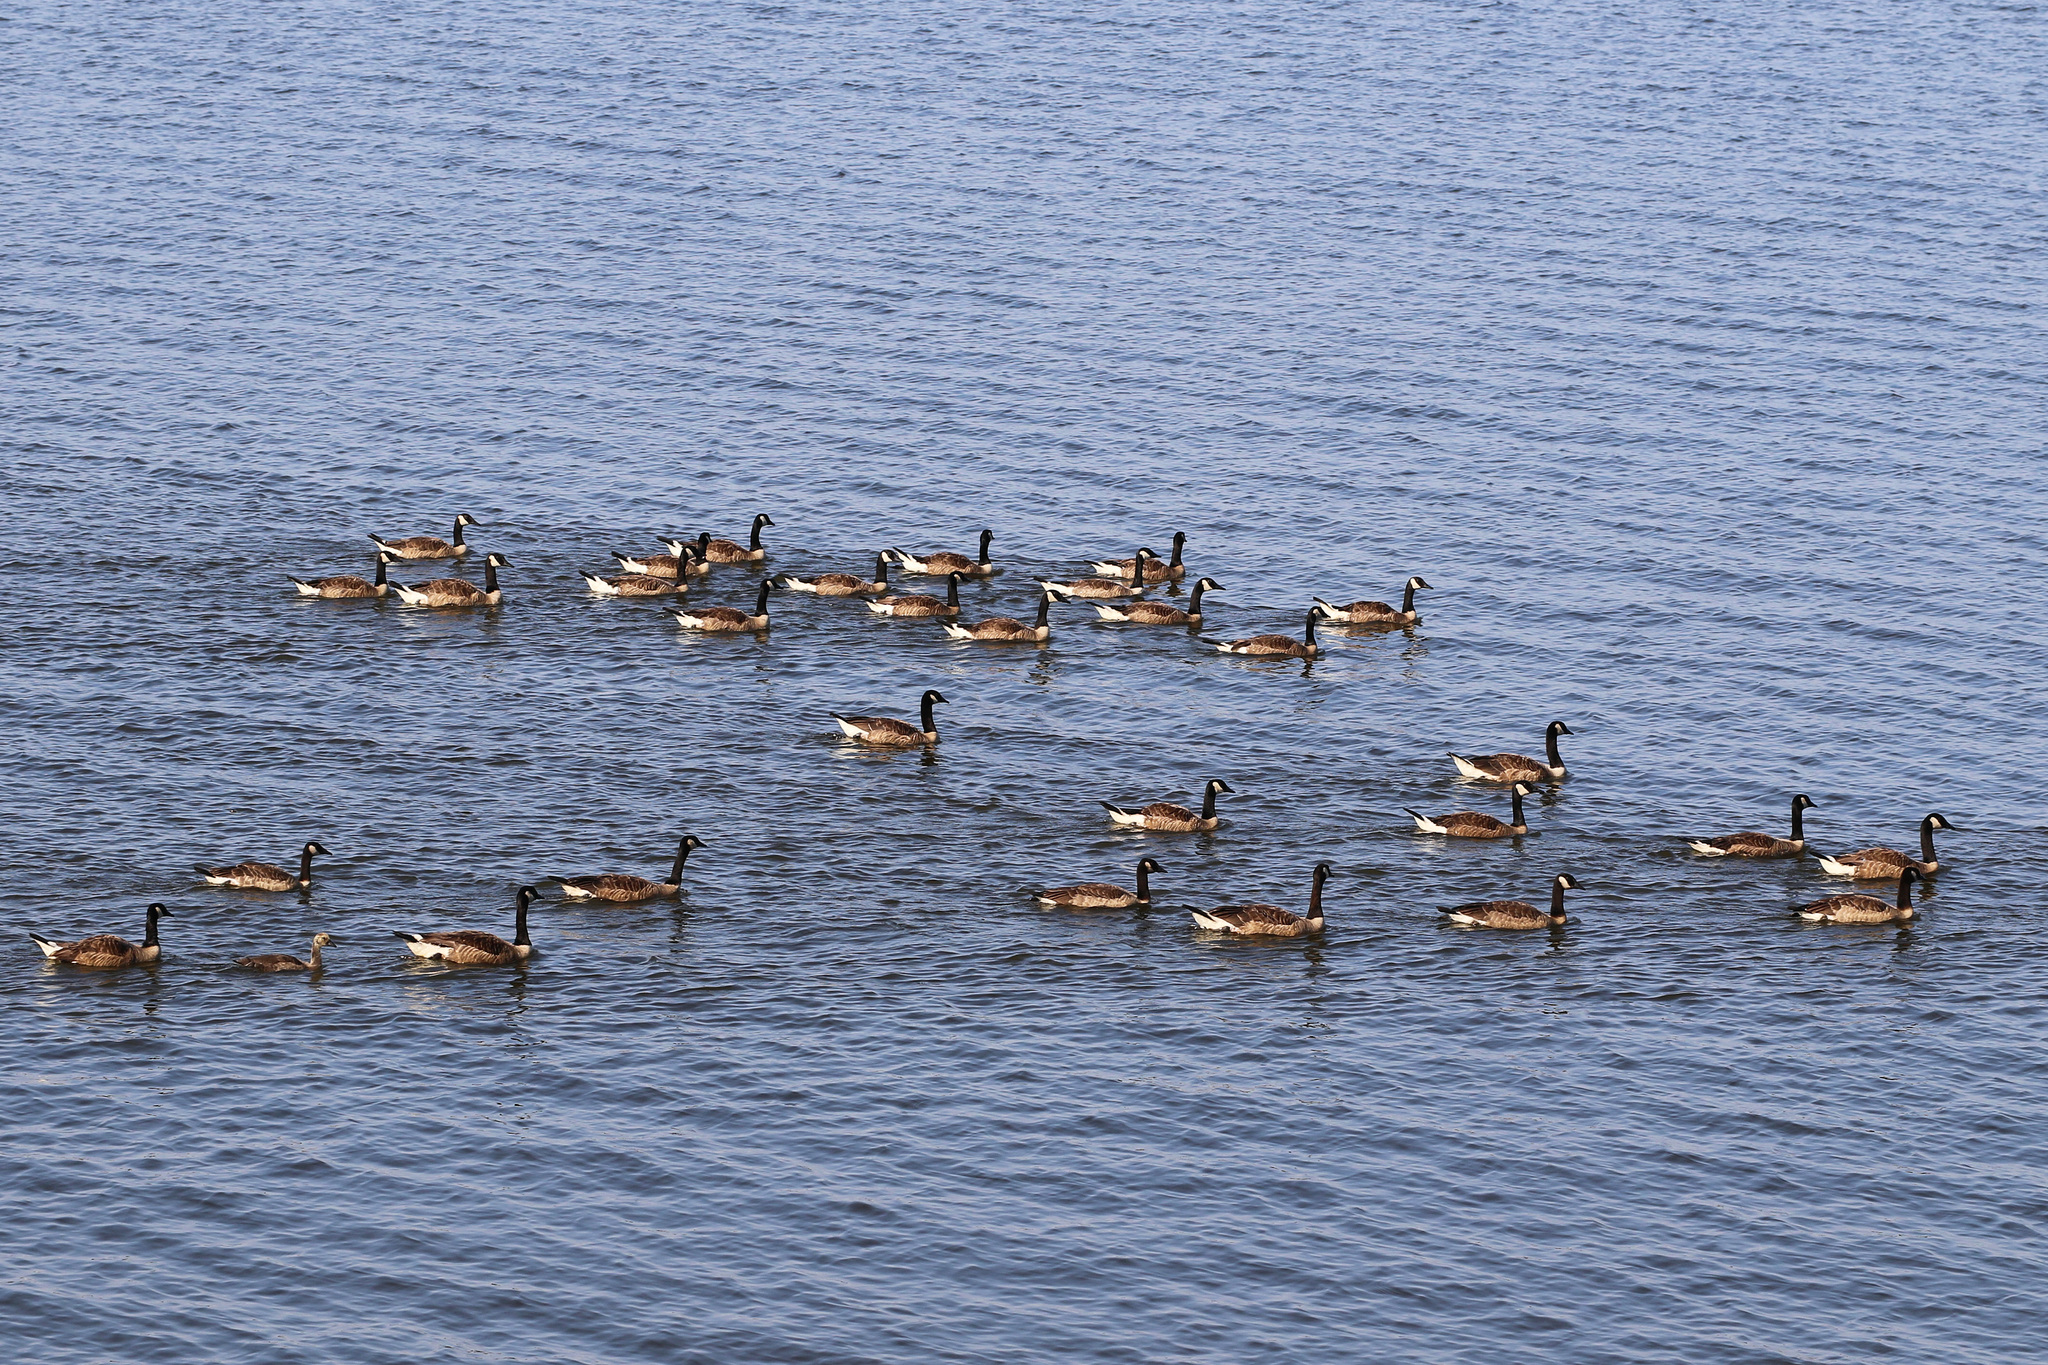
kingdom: Animalia
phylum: Chordata
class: Aves
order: Anseriformes
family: Anatidae
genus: Branta
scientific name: Branta canadensis
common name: Canada goose
